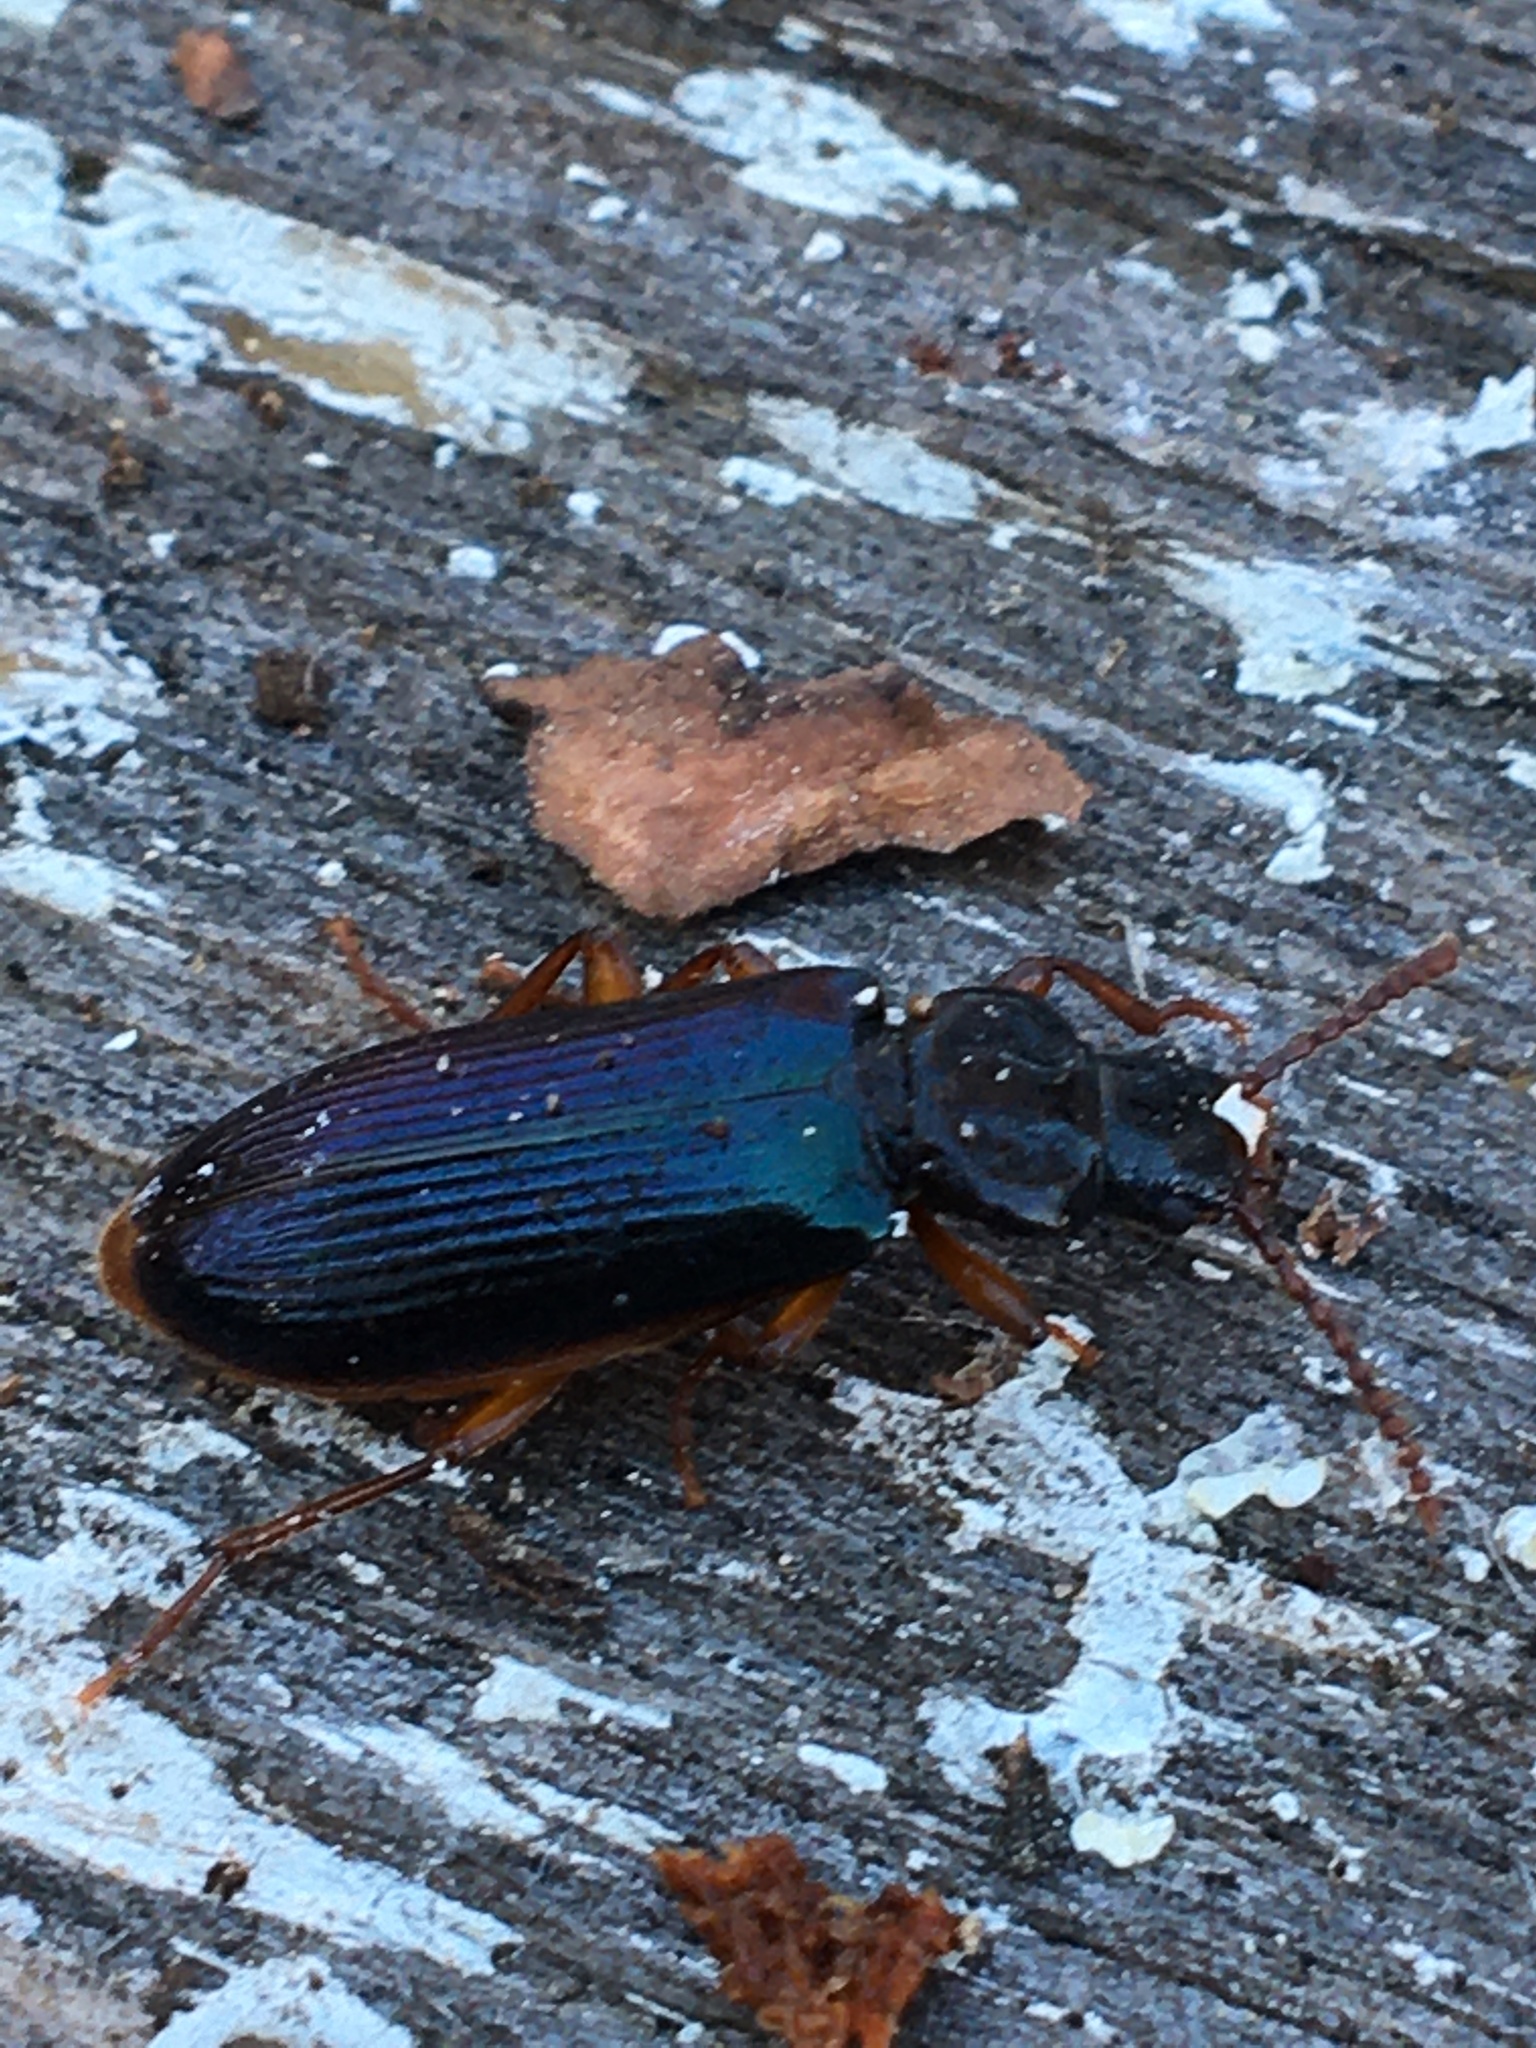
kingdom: Animalia
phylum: Arthropoda
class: Insecta
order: Coleoptera
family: Pythidae
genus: Pytho
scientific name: Pytho americanus
